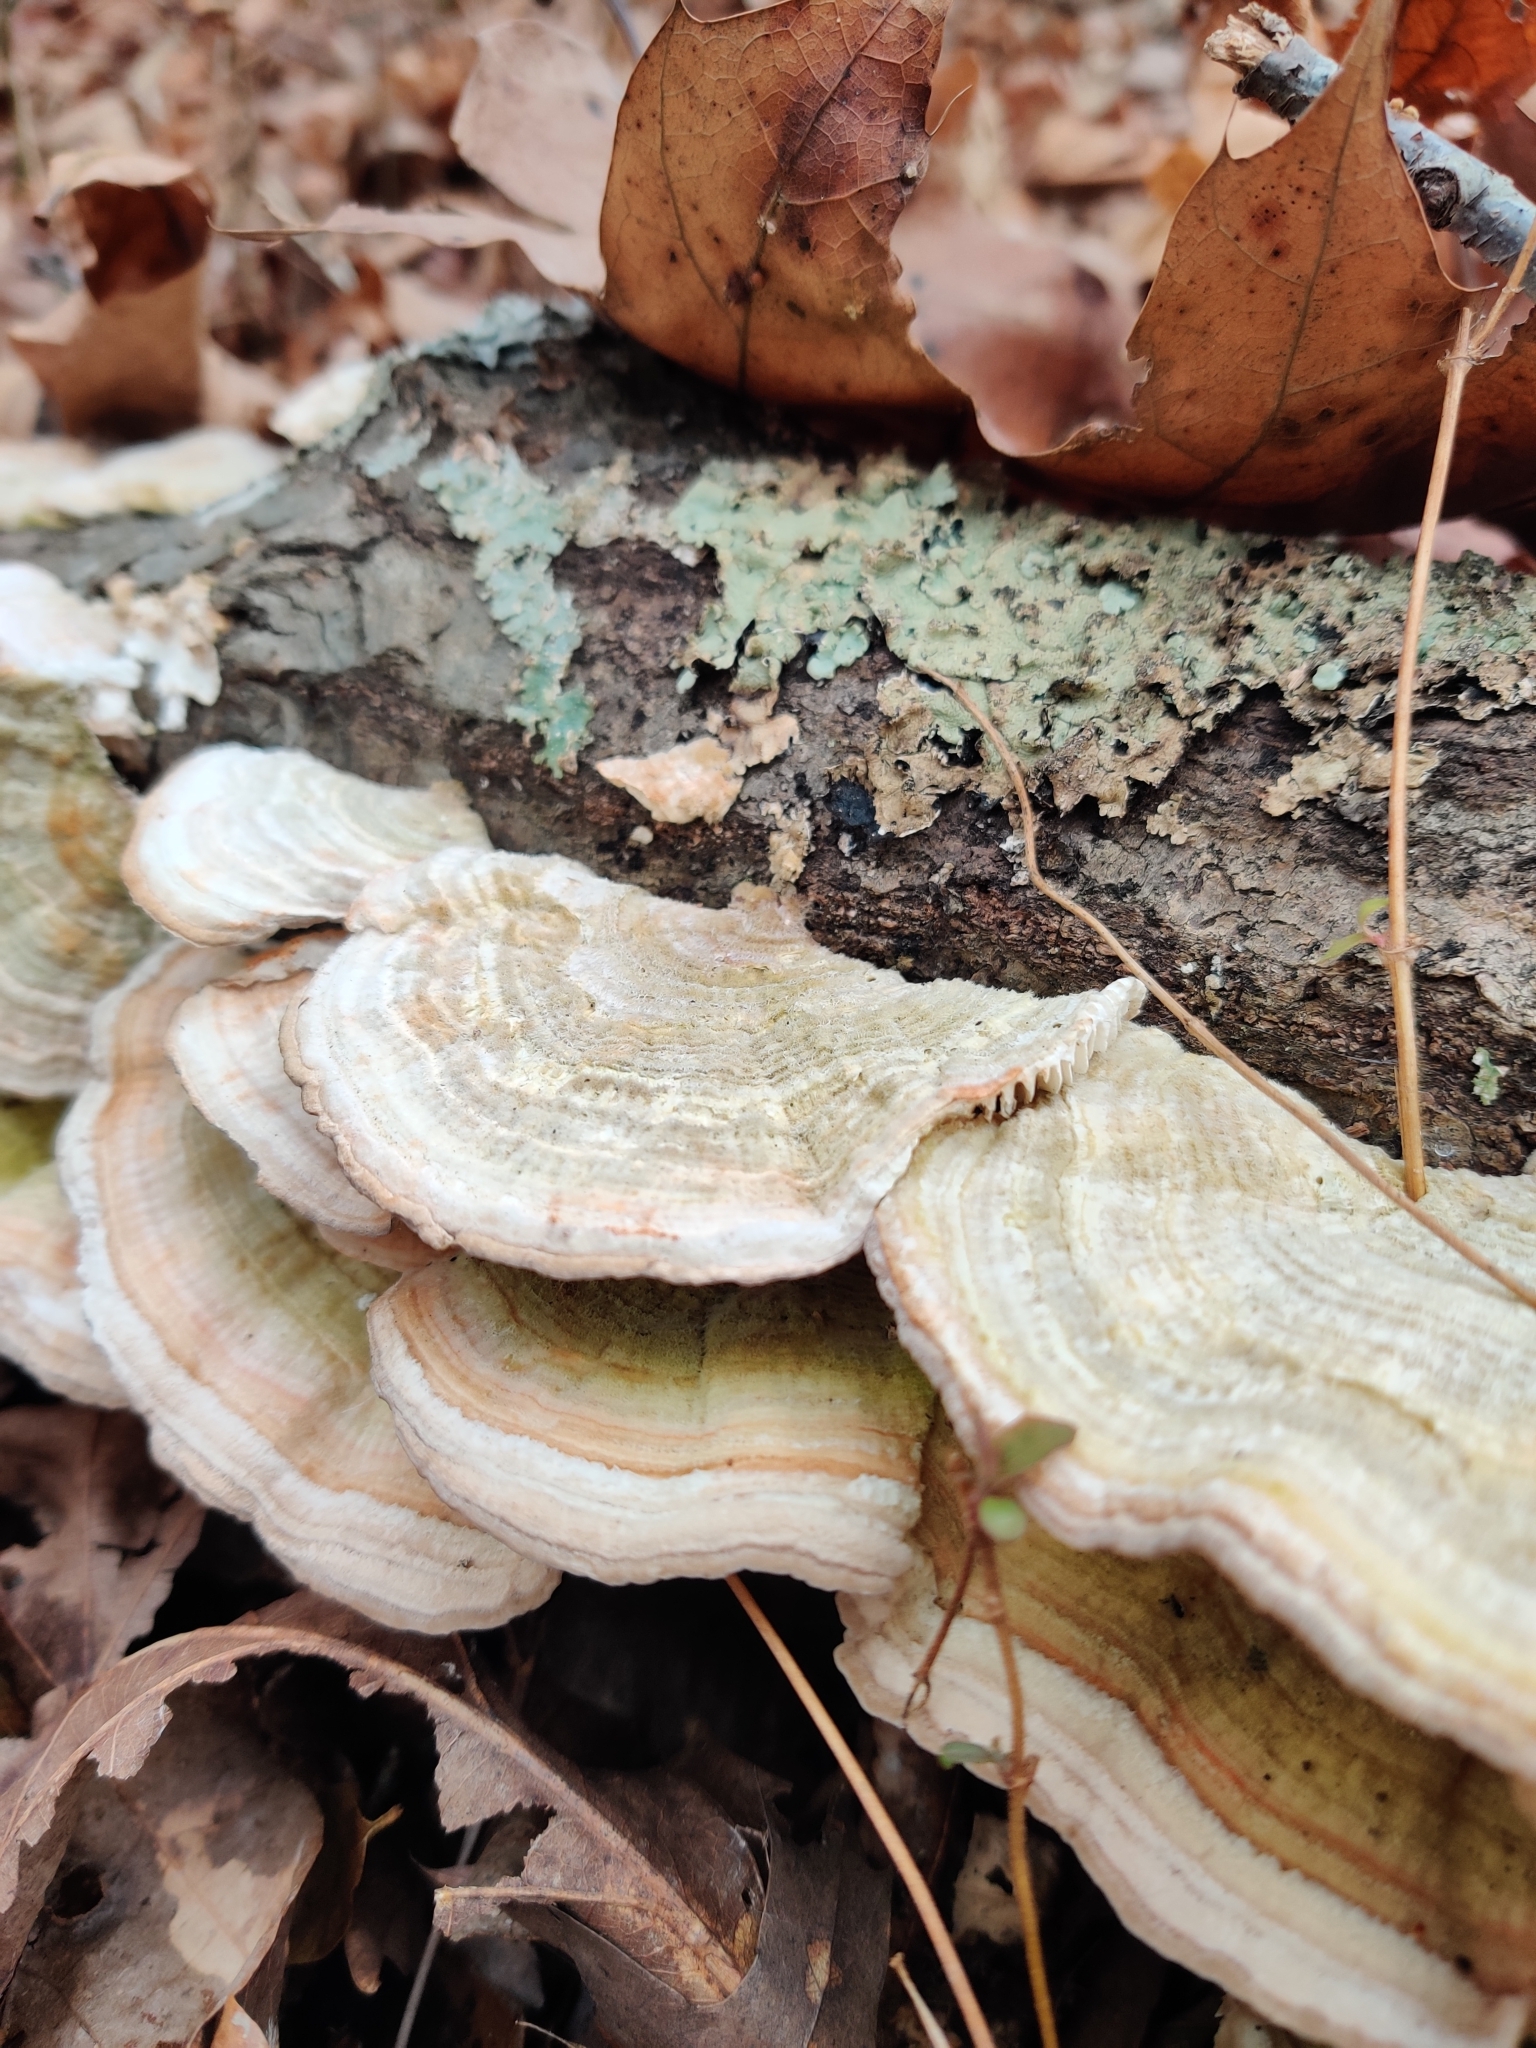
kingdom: Fungi
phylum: Basidiomycota
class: Agaricomycetes
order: Polyporales
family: Polyporaceae
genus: Lenzites
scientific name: Lenzites betulinus
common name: Birch mazegill
